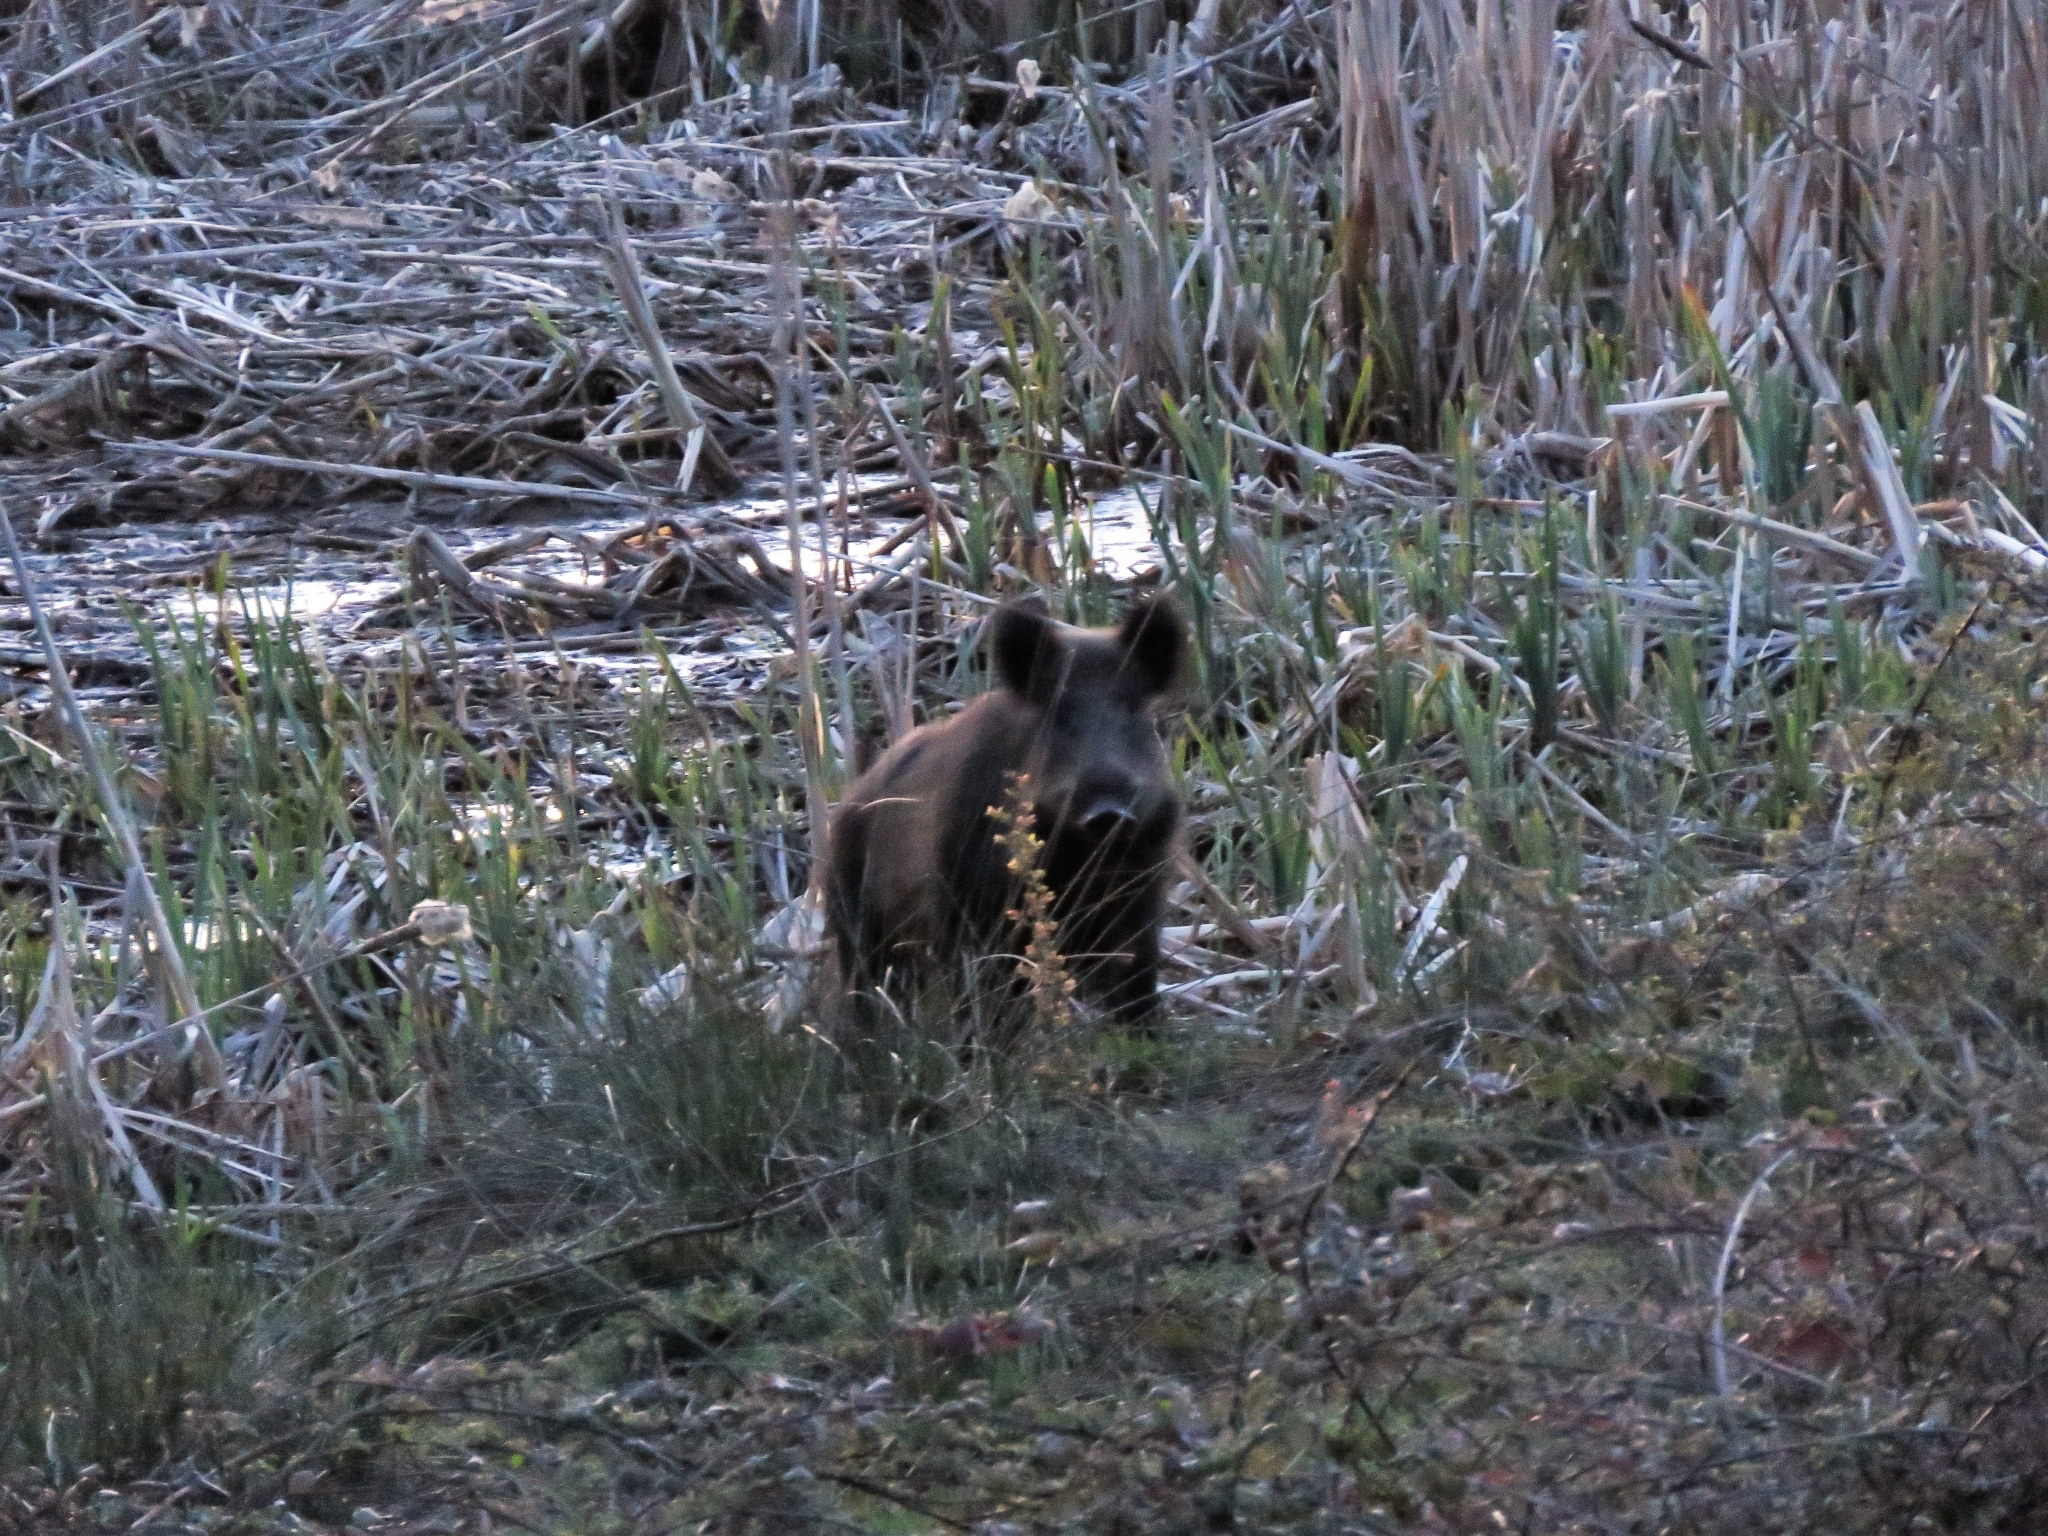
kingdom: Animalia
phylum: Chordata
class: Mammalia
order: Artiodactyla
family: Suidae
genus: Sus
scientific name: Sus scrofa
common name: Wild boar
